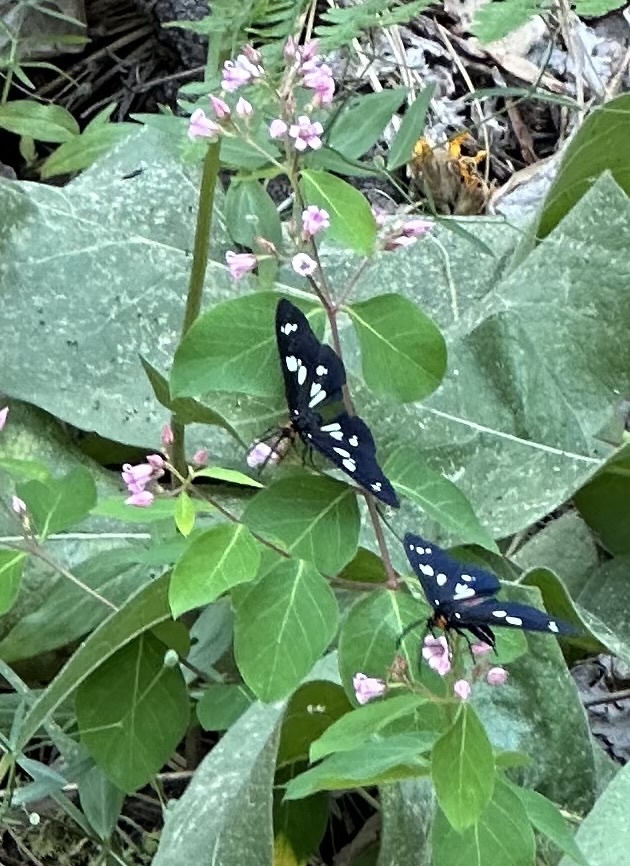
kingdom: Animalia
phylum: Arthropoda
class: Insecta
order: Lepidoptera
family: Erebidae
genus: Gnophaela
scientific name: Gnophaela latipennis
